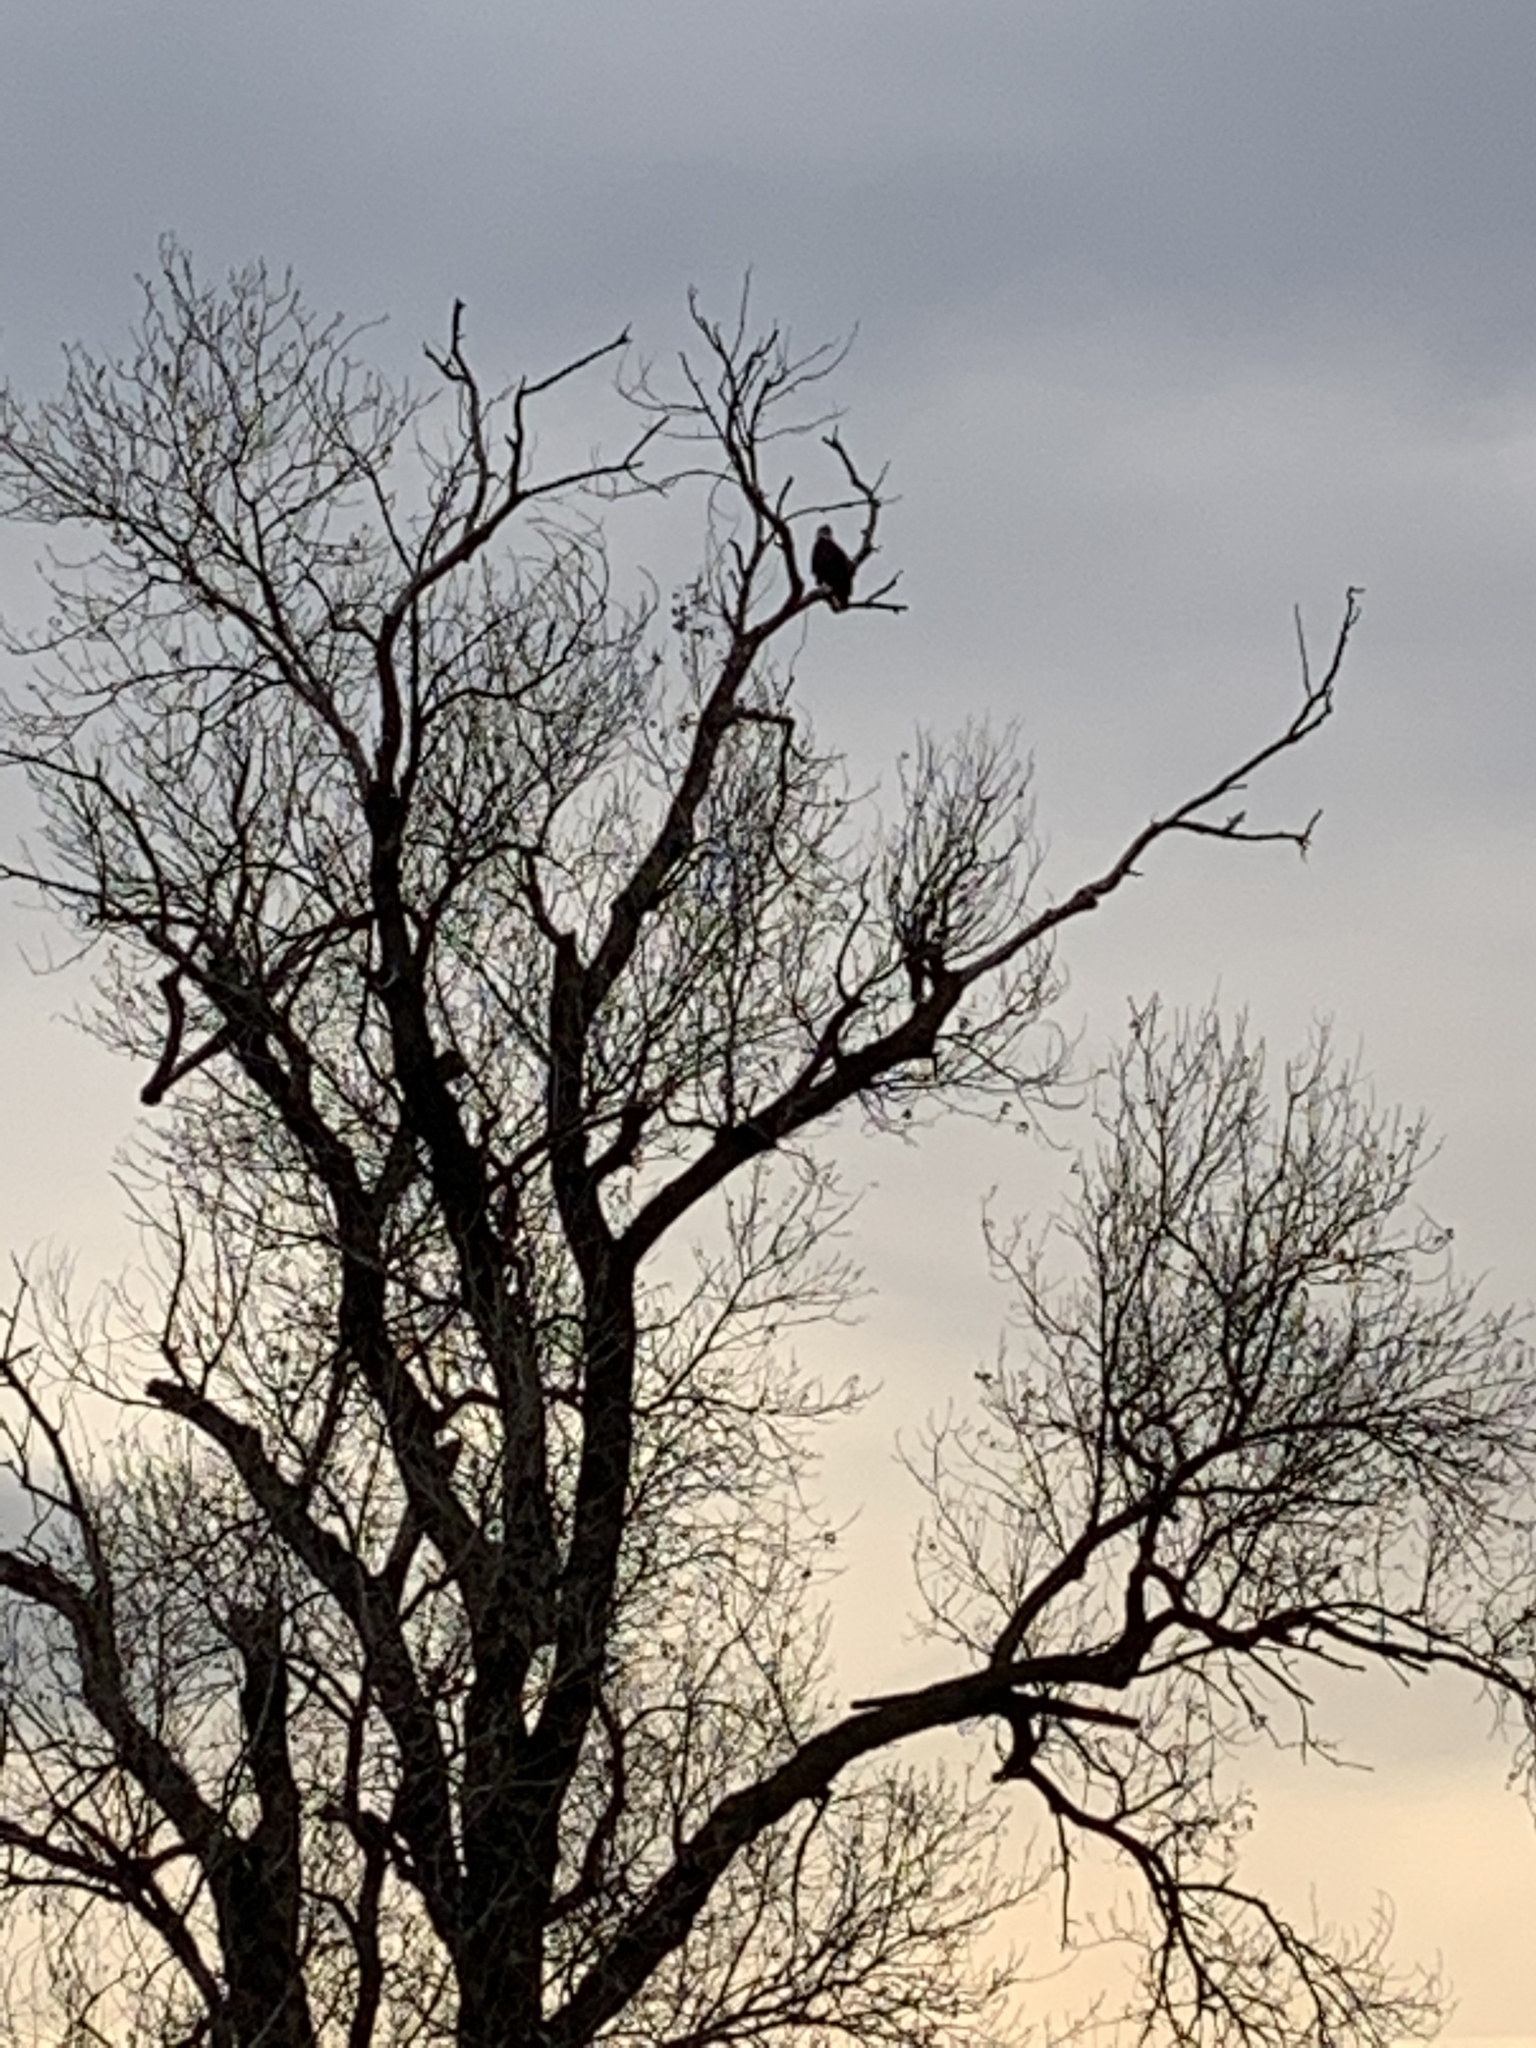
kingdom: Animalia
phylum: Chordata
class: Aves
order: Accipitriformes
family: Accipitridae
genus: Haliaeetus
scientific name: Haliaeetus leucocephalus
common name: Bald eagle
